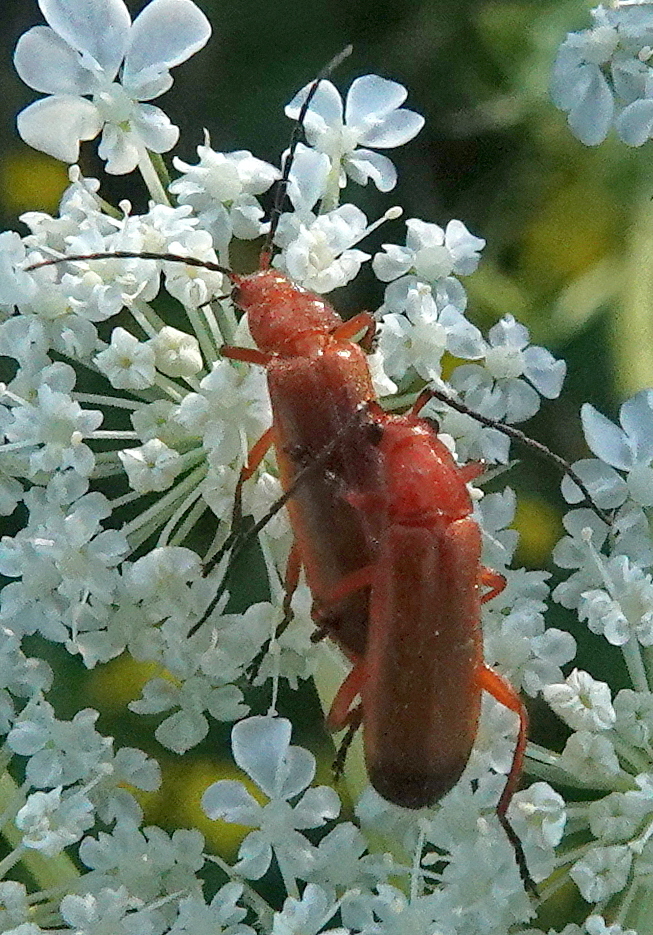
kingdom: Animalia
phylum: Arthropoda
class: Insecta
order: Coleoptera
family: Cantharidae
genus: Rhagonycha
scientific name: Rhagonycha fulva
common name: Common red soldier beetle
